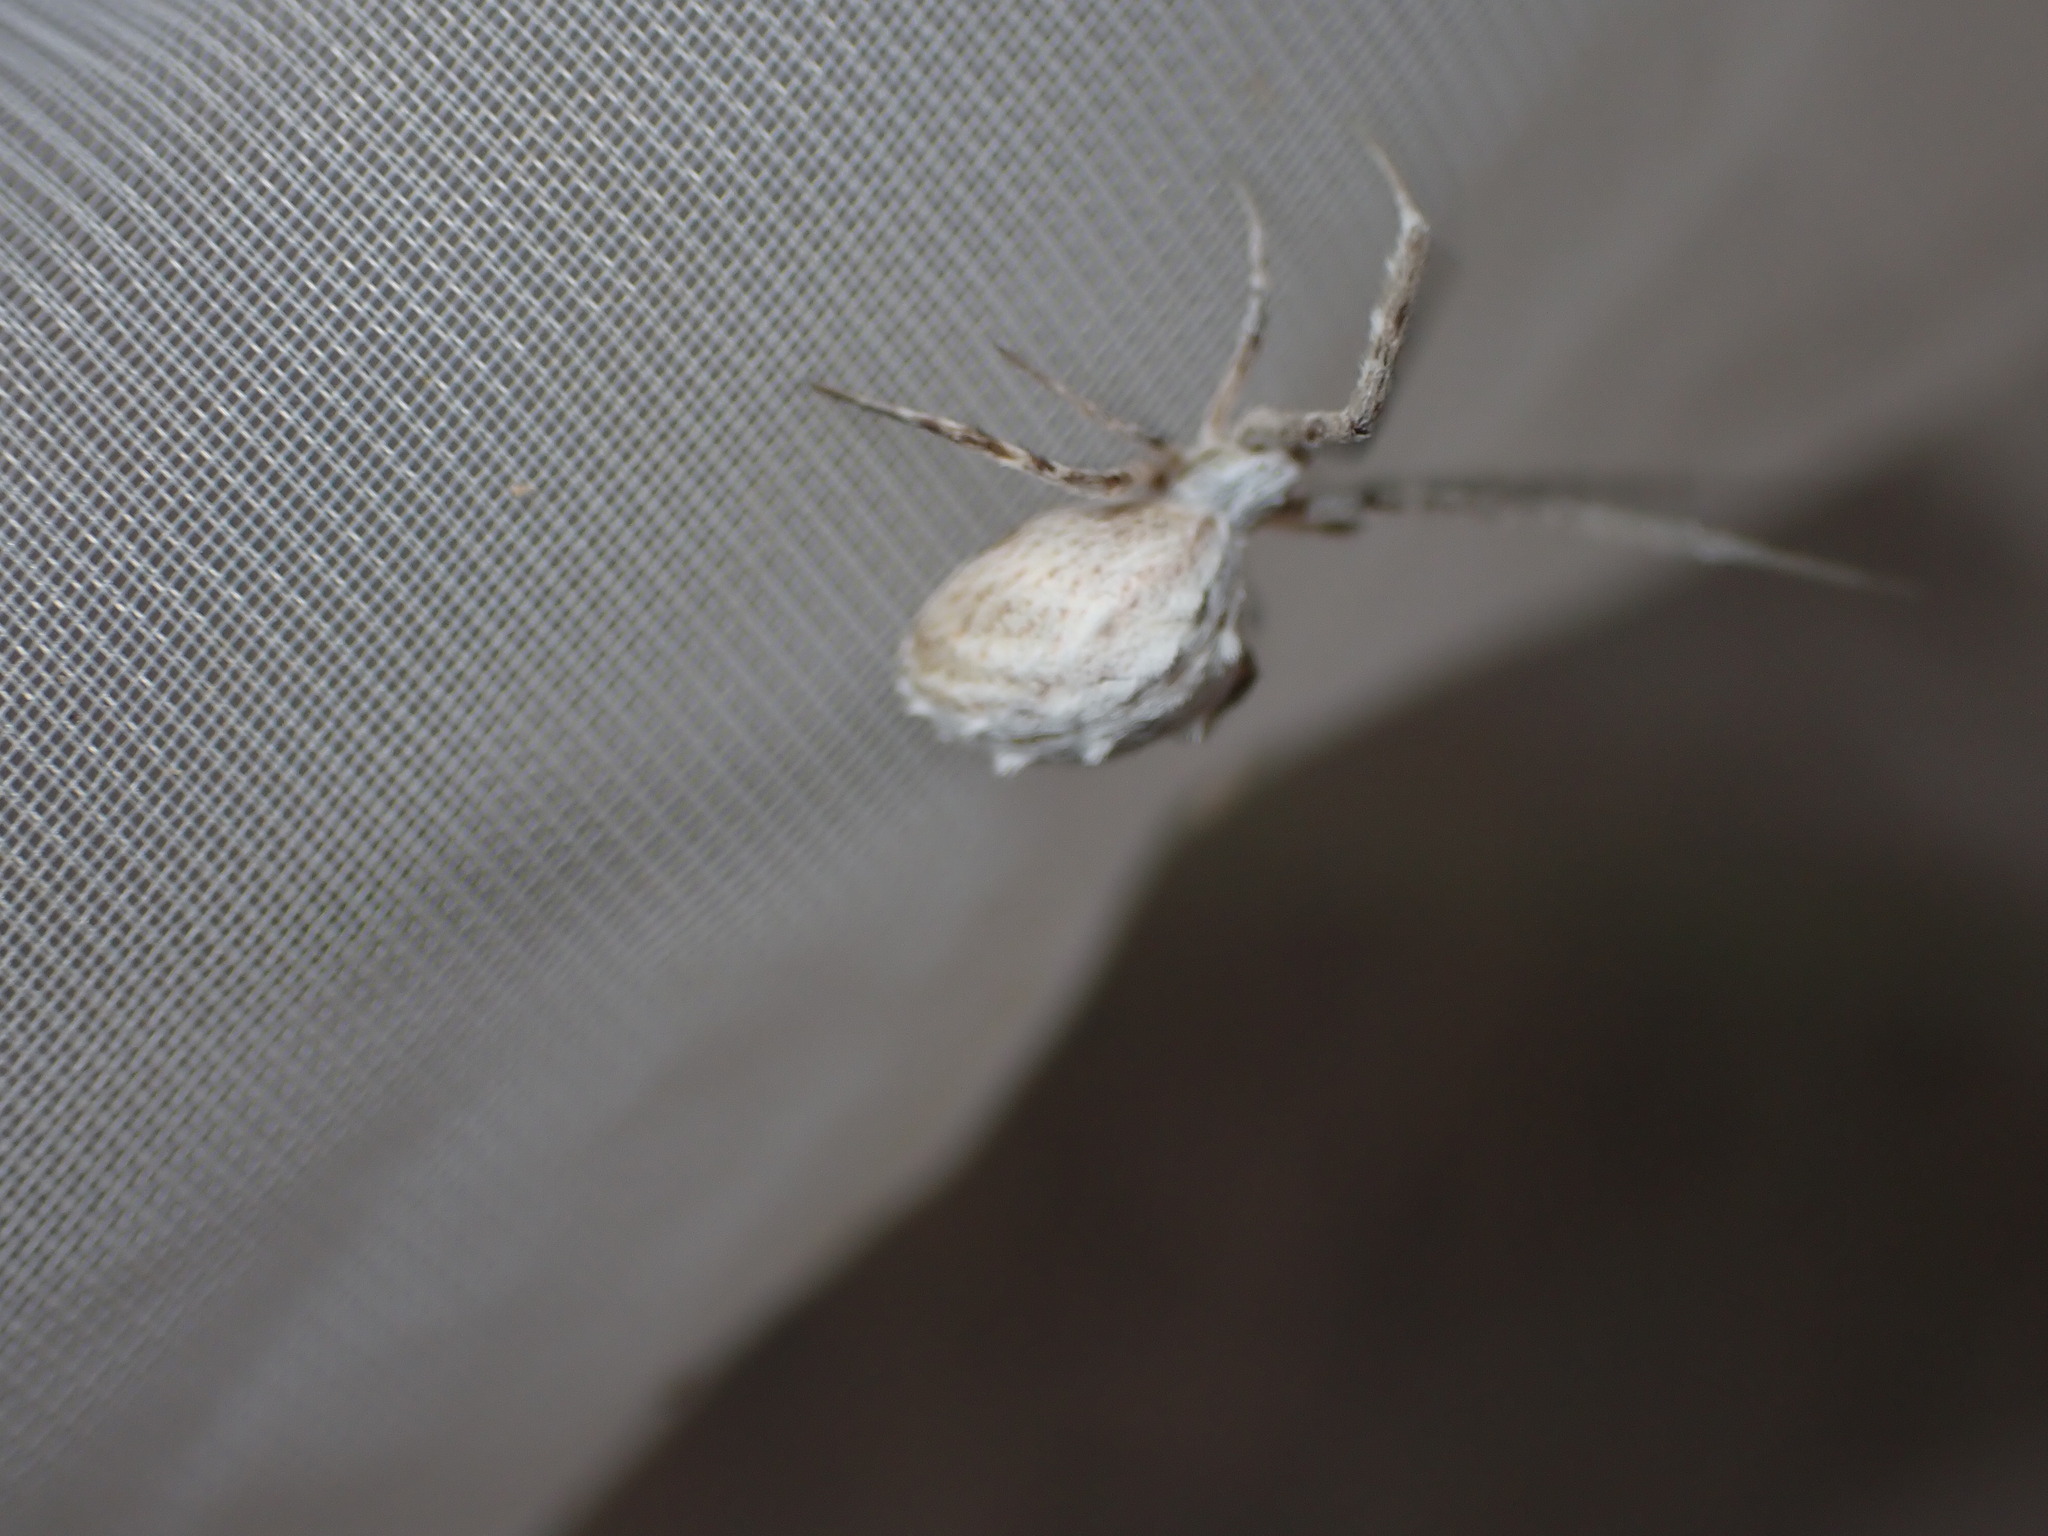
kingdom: Animalia
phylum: Arthropoda
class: Arachnida
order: Araneae
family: Uloboridae
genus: Uloborus
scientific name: Uloborus walckenaerius
